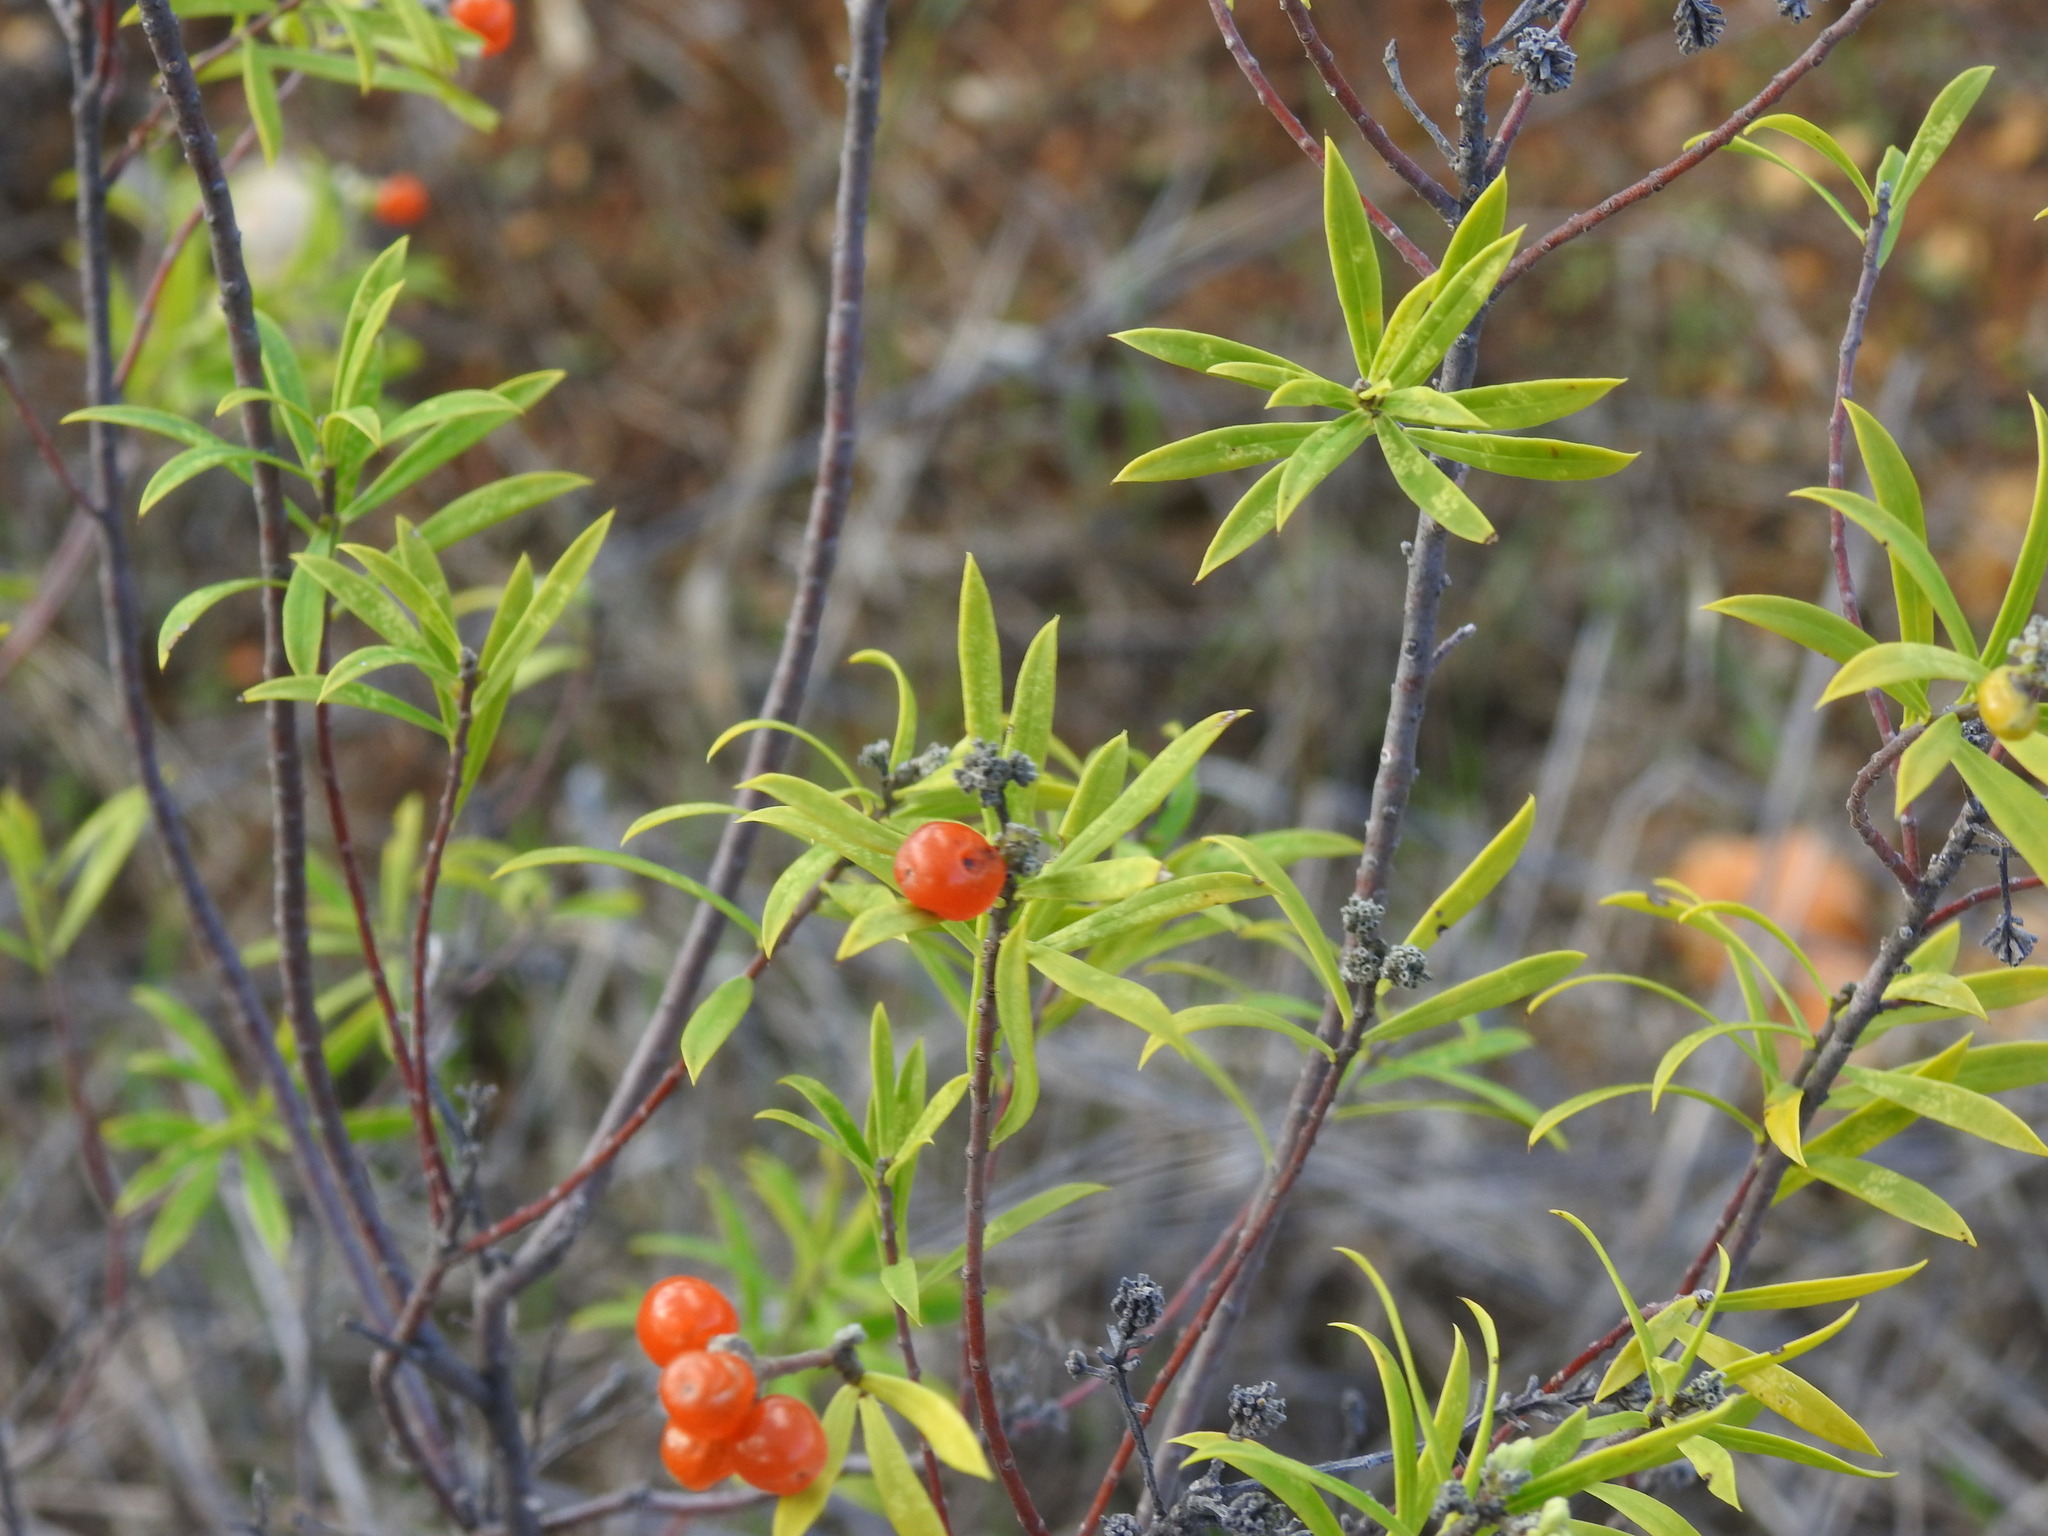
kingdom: Plantae
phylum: Tracheophyta
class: Magnoliopsida
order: Malvales
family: Thymelaeaceae
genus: Daphne
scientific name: Daphne gnidium
